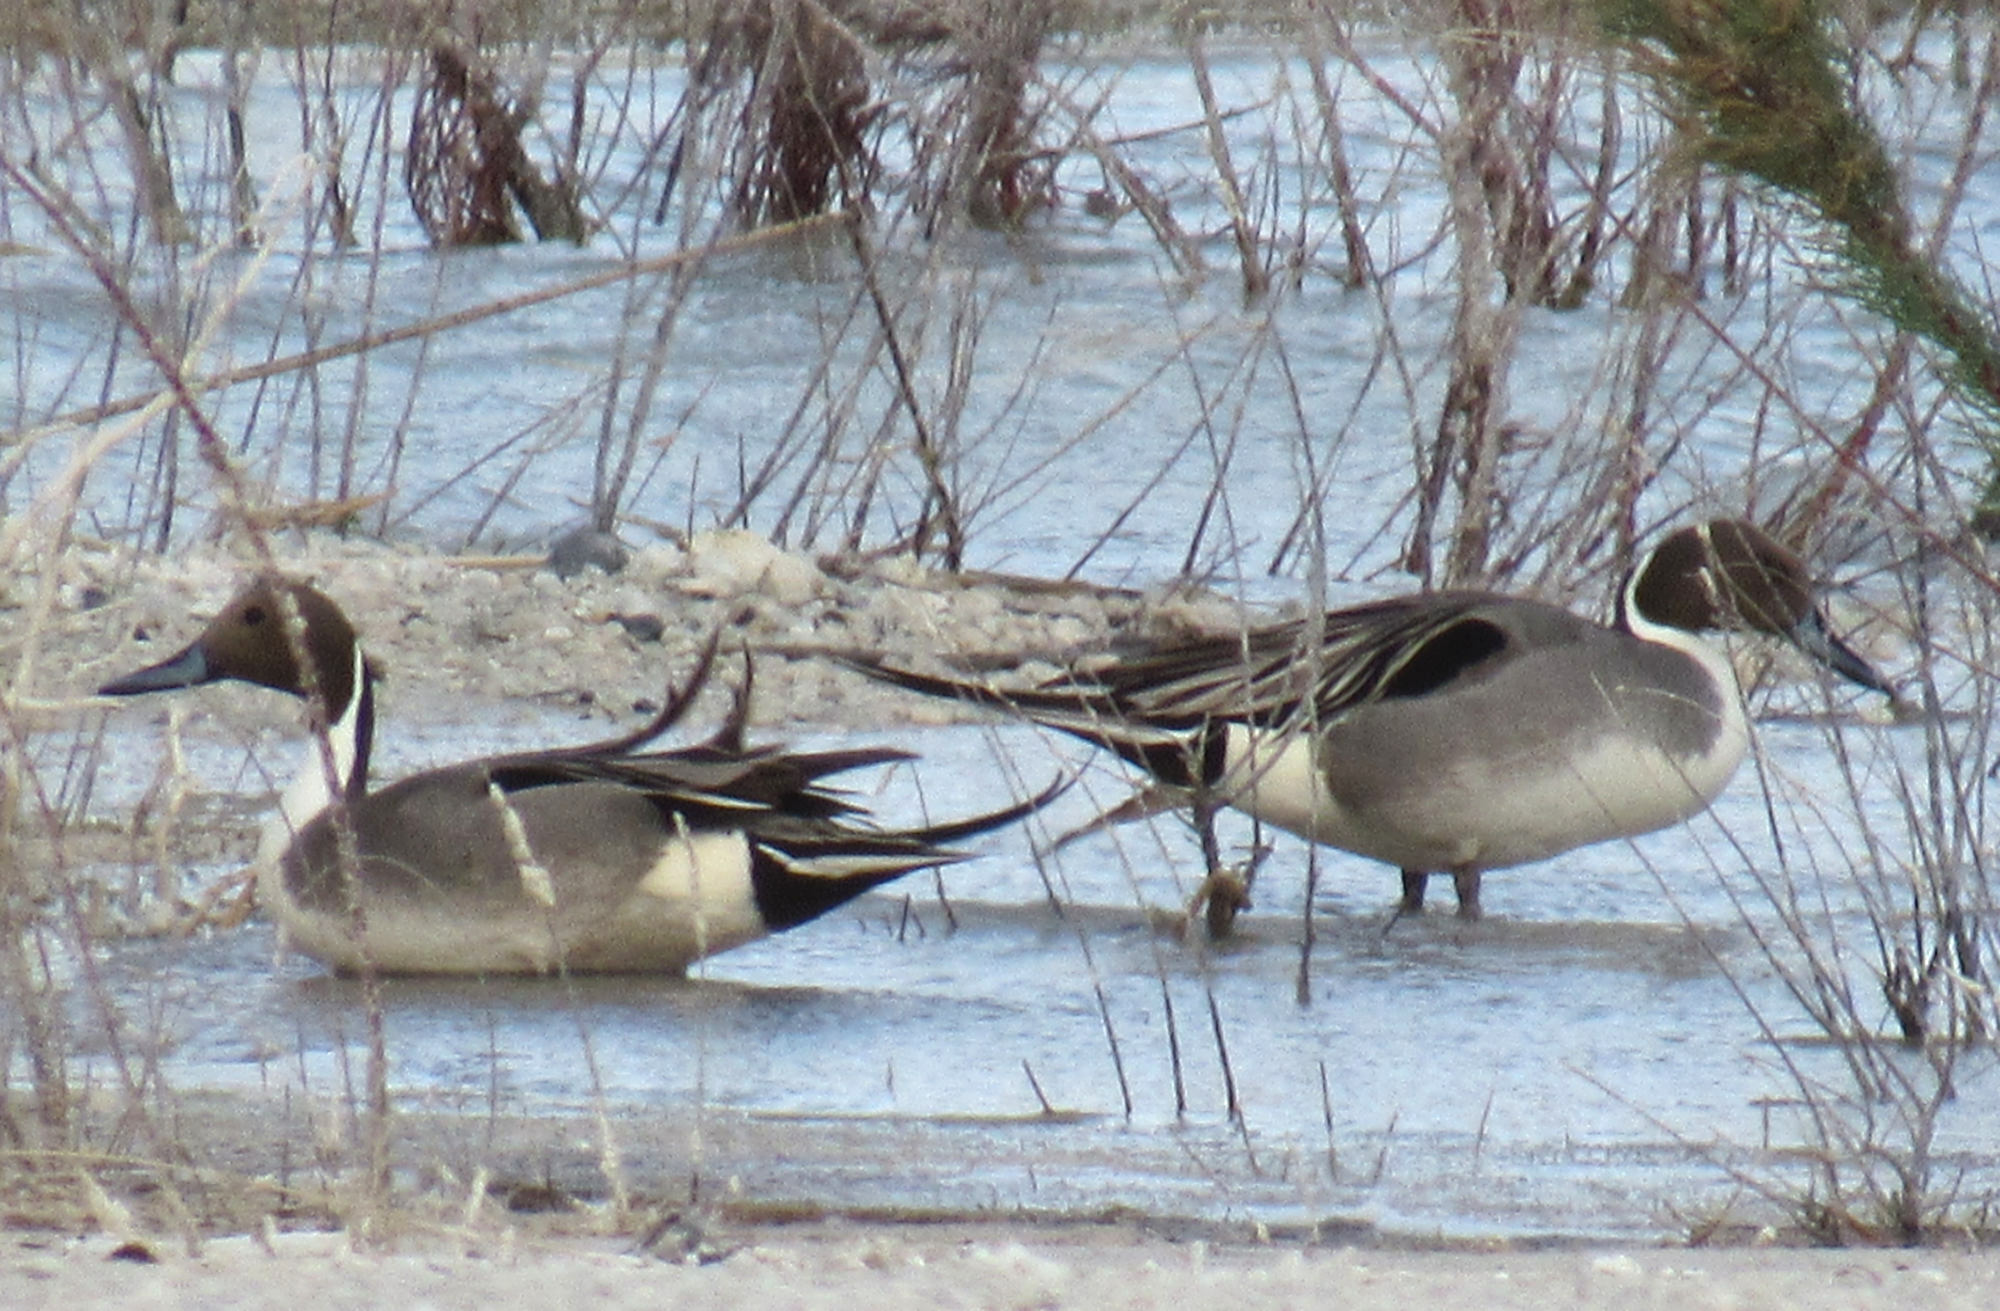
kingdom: Animalia
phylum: Chordata
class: Aves
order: Anseriformes
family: Anatidae
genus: Anas
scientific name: Anas acuta
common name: Northern pintail
